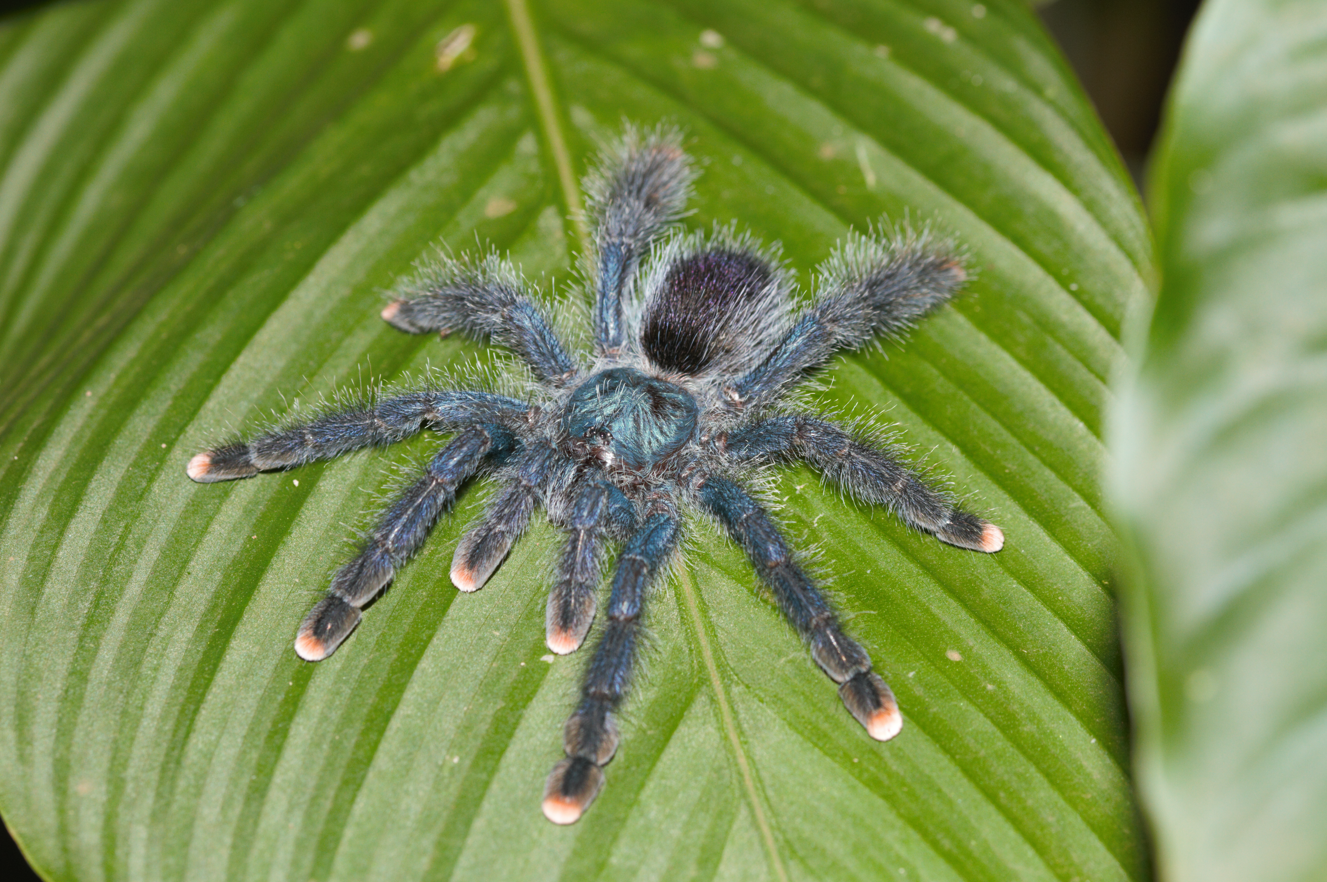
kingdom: Animalia
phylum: Arthropoda
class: Arachnida
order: Araneae
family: Theraphosidae
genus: Avicularia
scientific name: Avicularia avicularia
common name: Tarantula spiders
